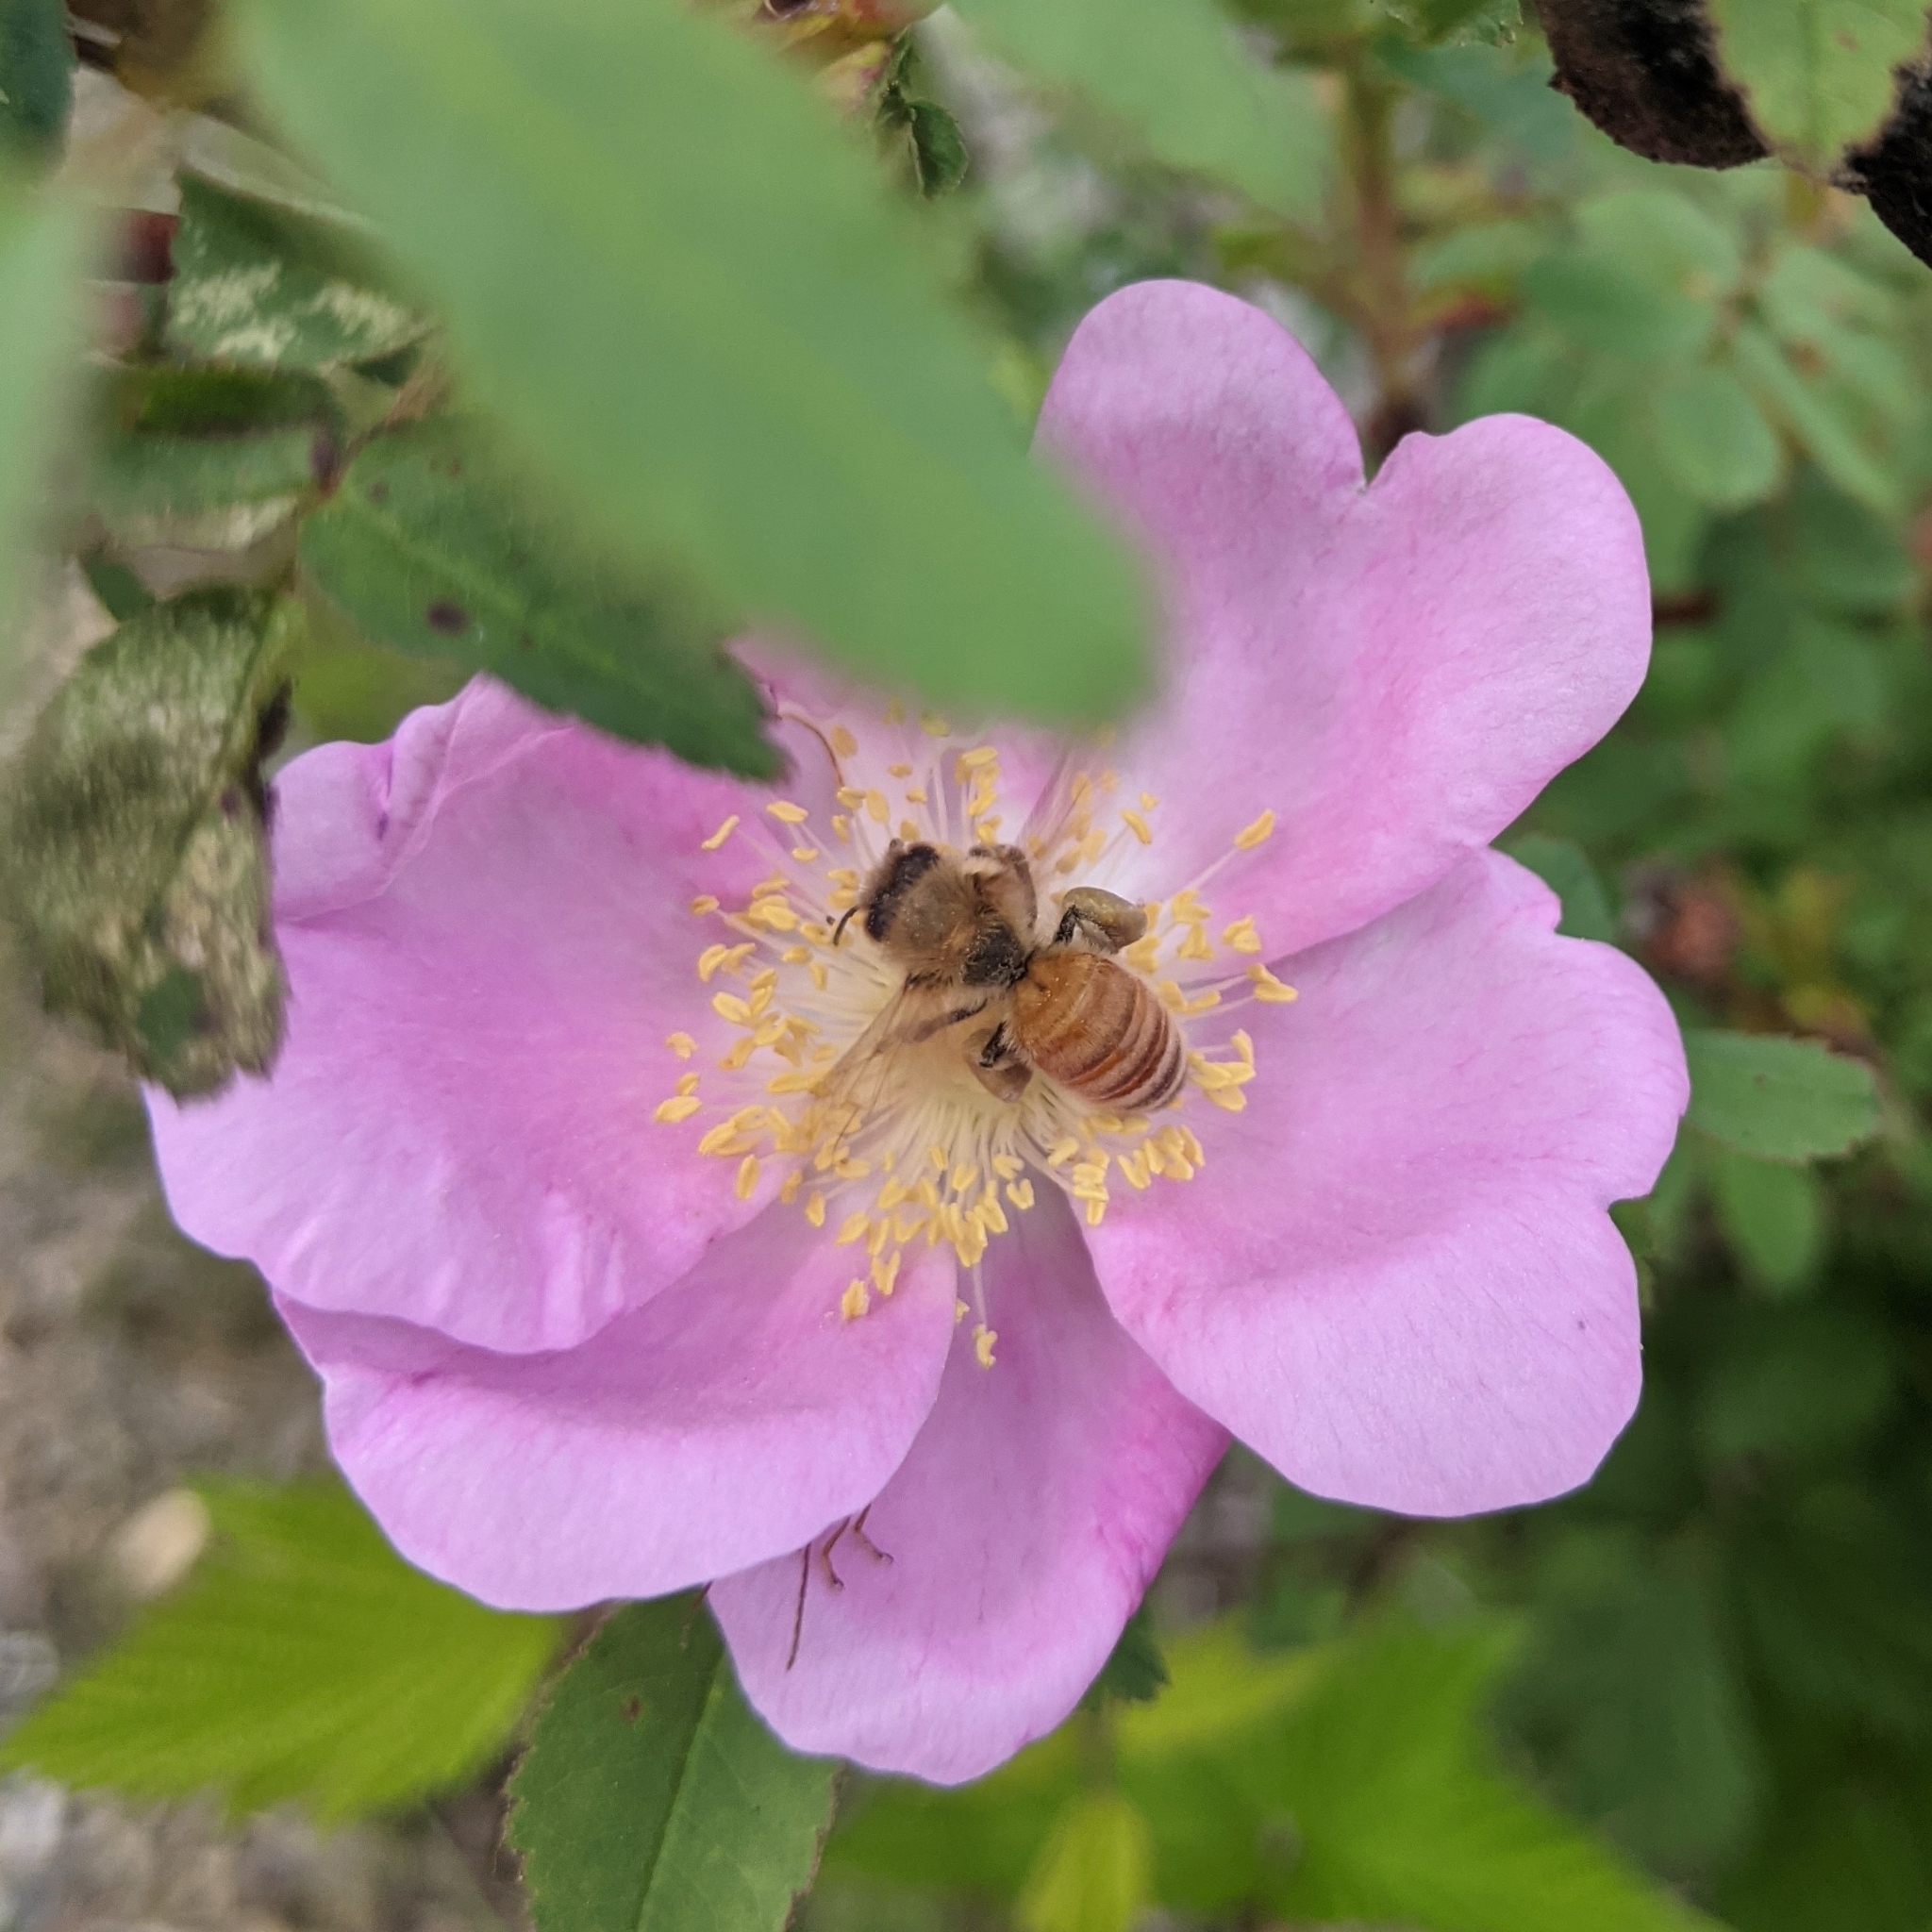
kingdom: Animalia
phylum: Arthropoda
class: Insecta
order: Hymenoptera
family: Apidae
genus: Apis
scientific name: Apis mellifera
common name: Honey bee
